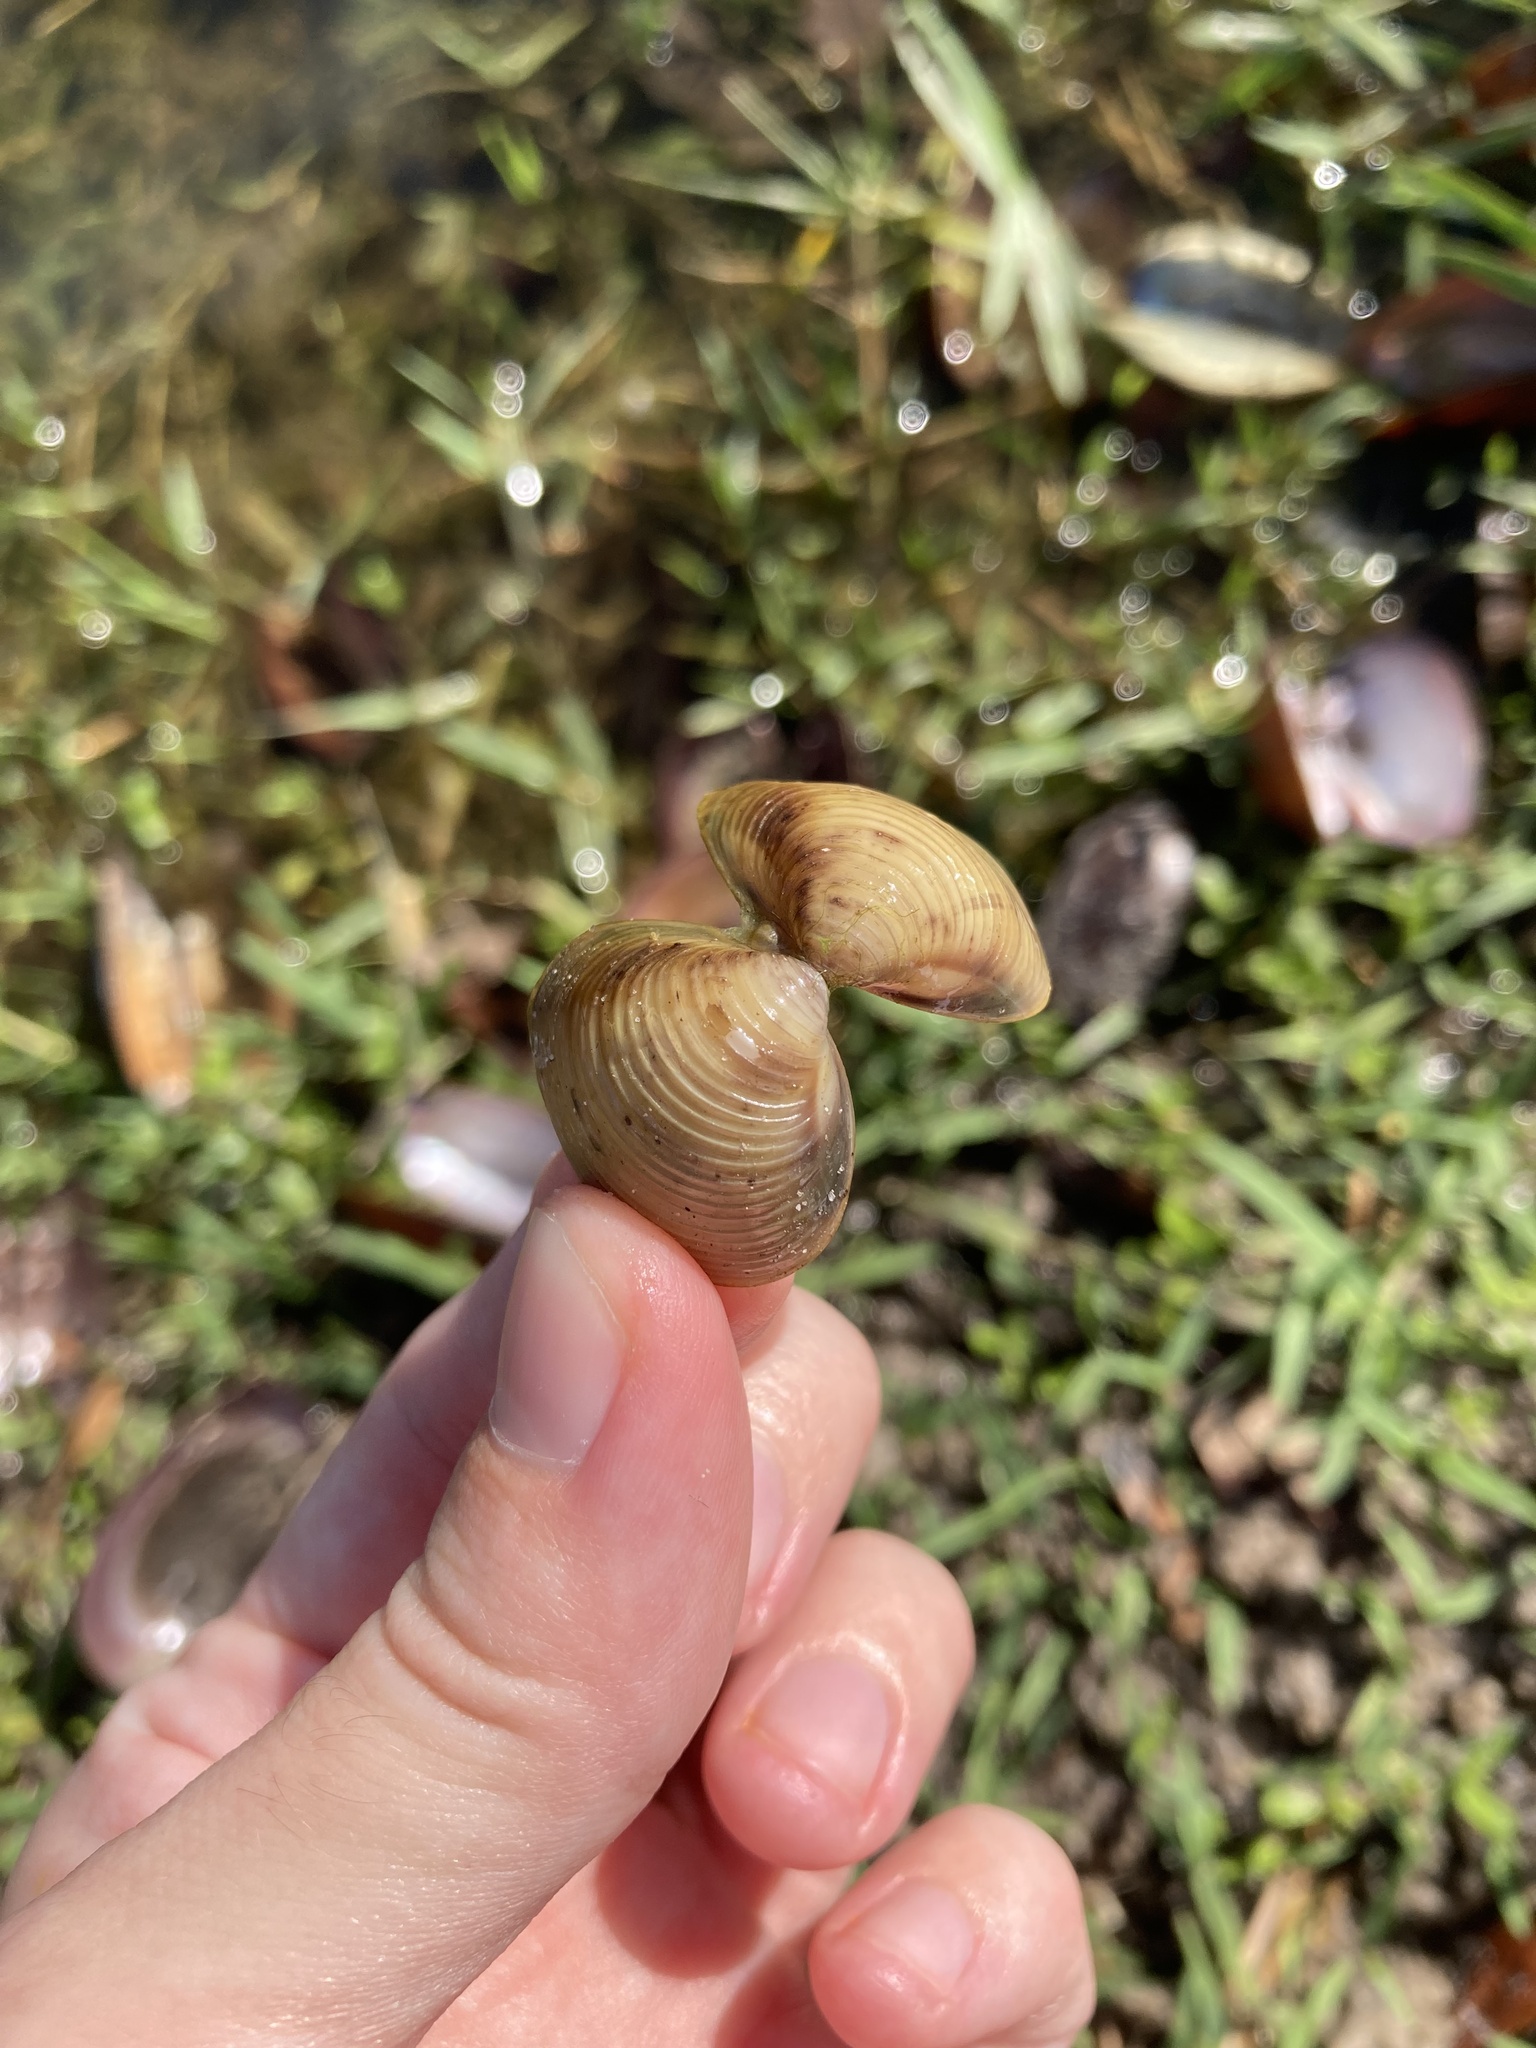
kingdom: Animalia
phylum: Mollusca
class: Bivalvia
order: Venerida
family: Cyrenidae
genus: Corbicula
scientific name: Corbicula fluminea
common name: Asian clam
